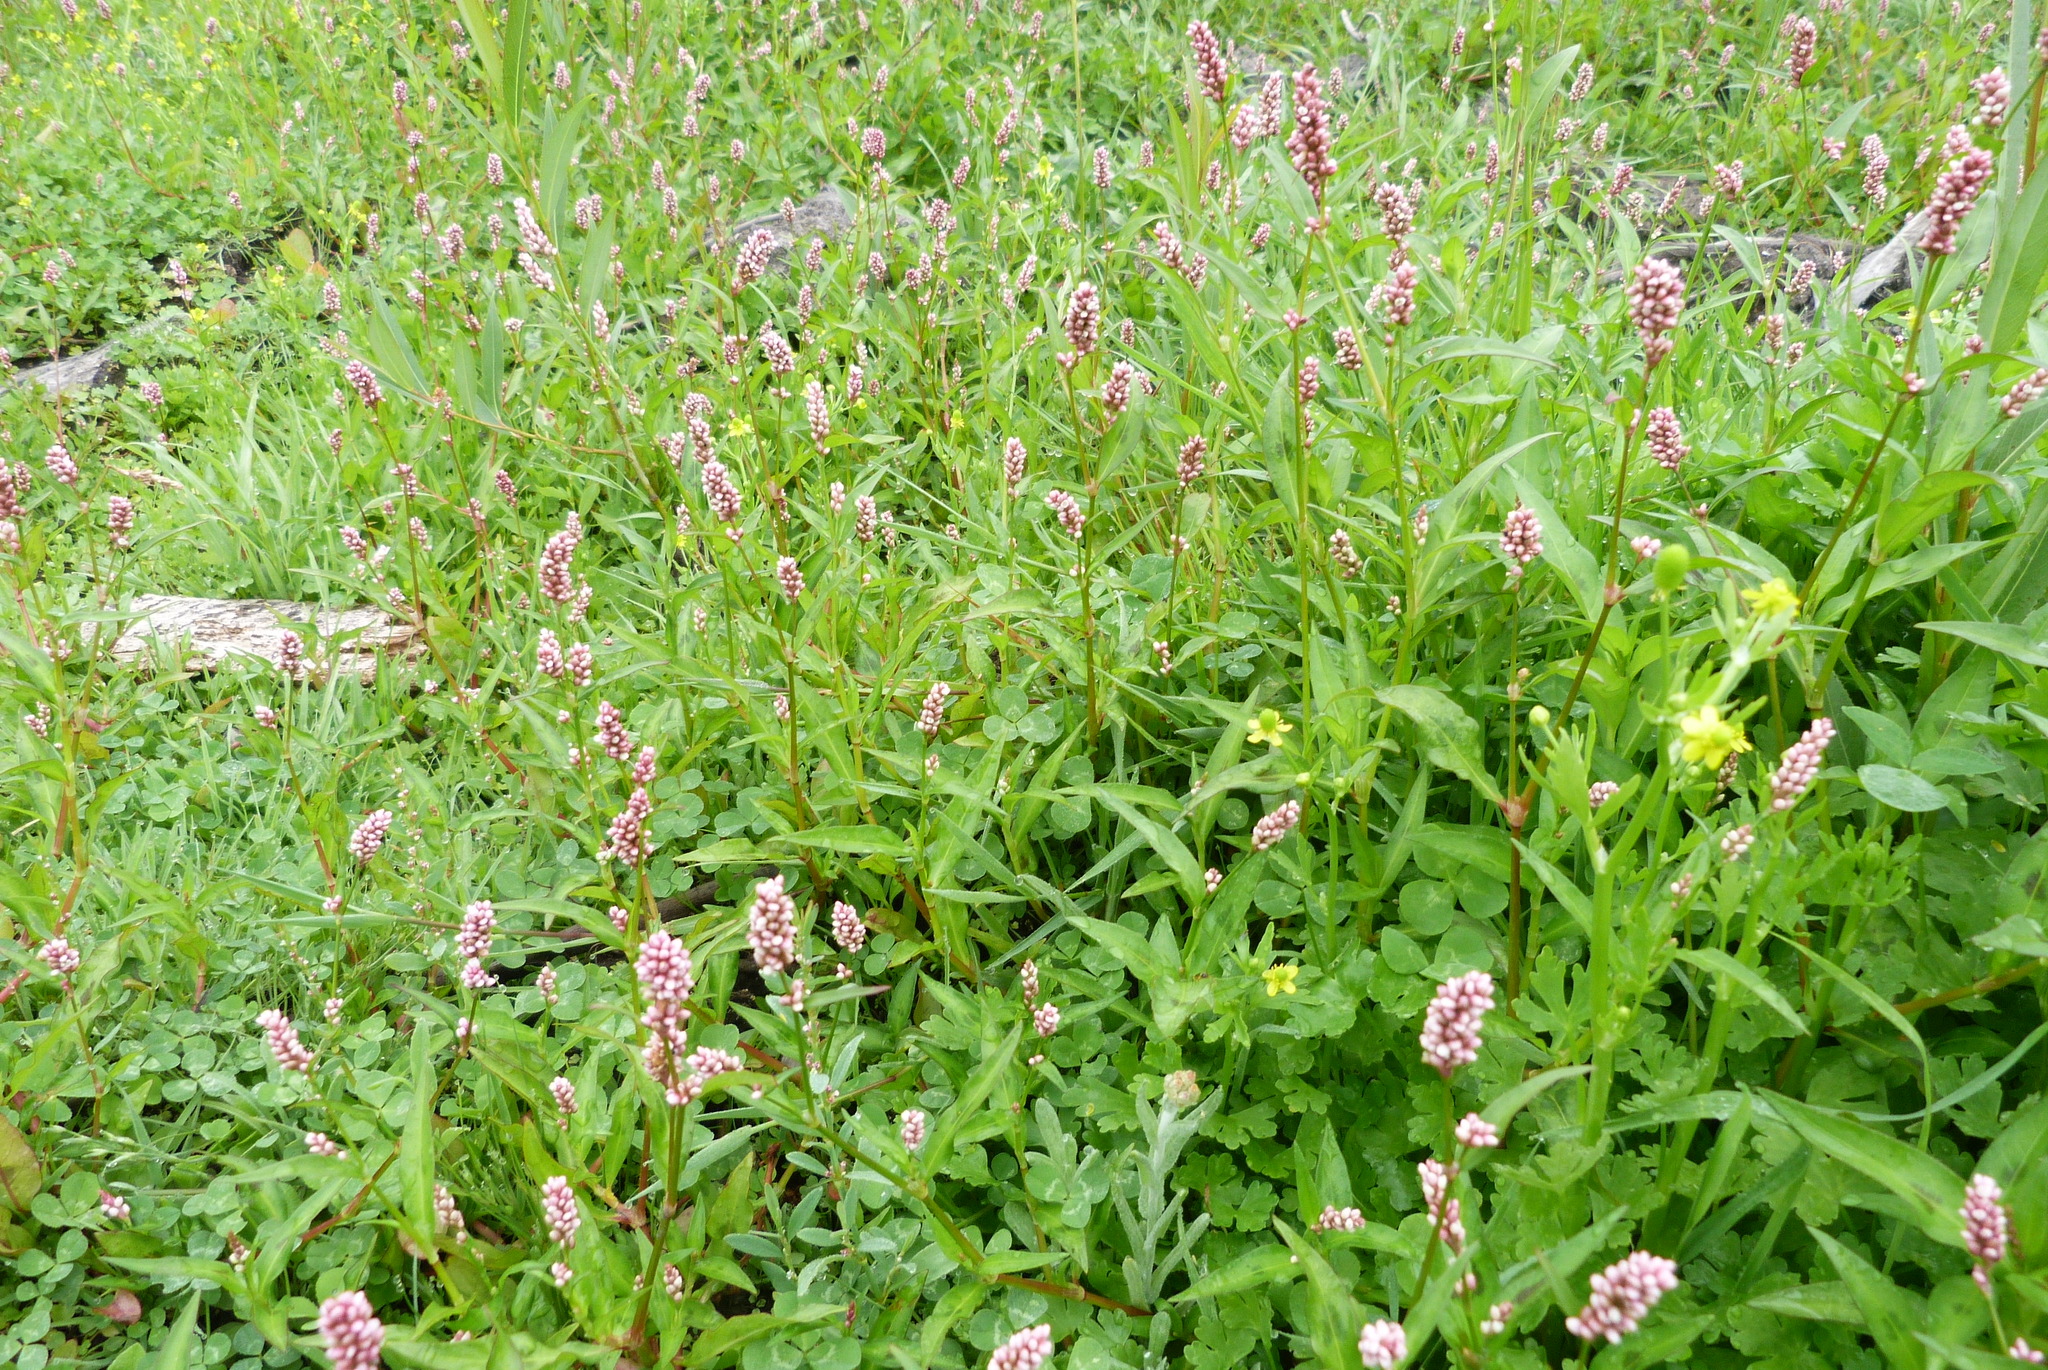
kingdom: Plantae
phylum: Tracheophyta
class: Magnoliopsida
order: Caryophyllales
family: Polygonaceae
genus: Persicaria
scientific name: Persicaria maculosa
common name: Redshank
